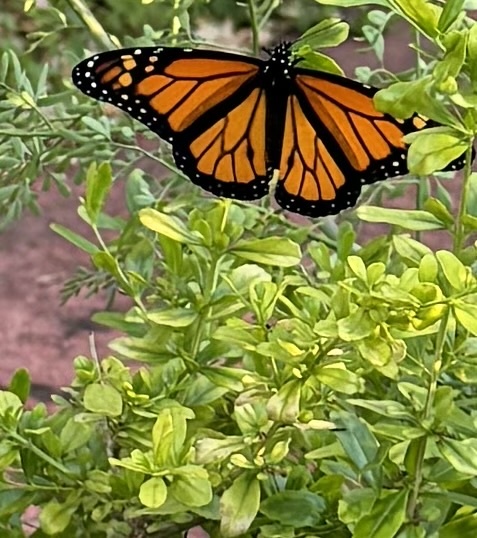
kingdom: Animalia
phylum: Arthropoda
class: Insecta
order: Lepidoptera
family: Nymphalidae
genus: Danaus
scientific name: Danaus plexippus
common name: Monarch
